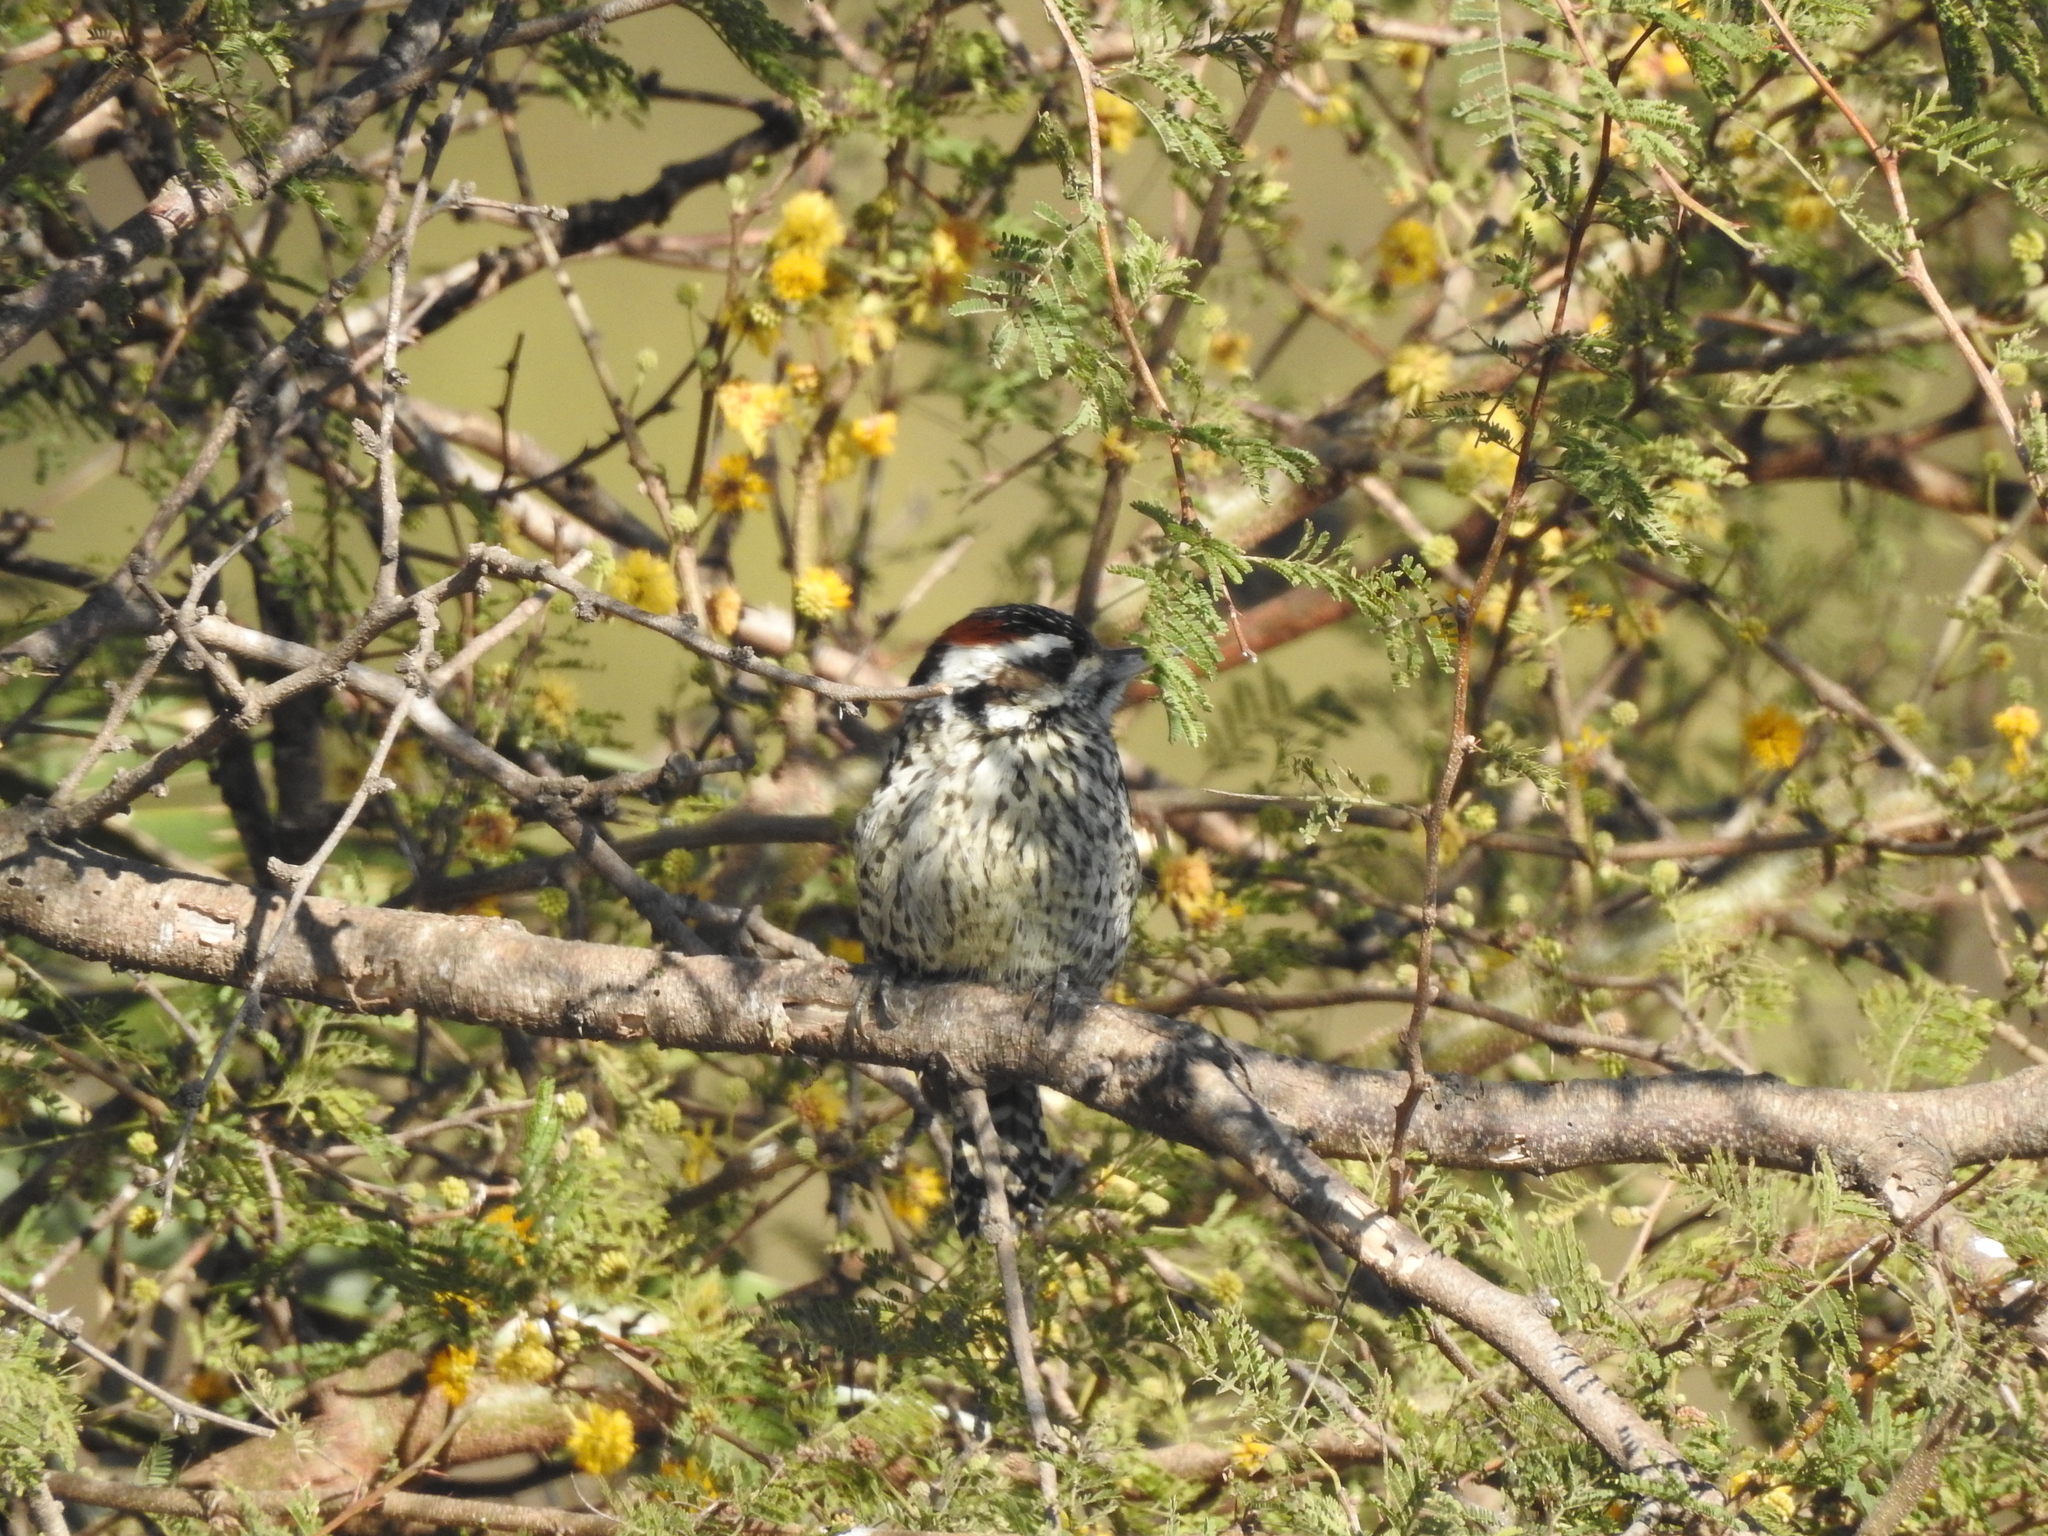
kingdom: Animalia
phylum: Chordata
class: Aves
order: Piciformes
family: Picidae
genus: Veniliornis
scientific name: Veniliornis mixtus
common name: Checkered woodpecker
